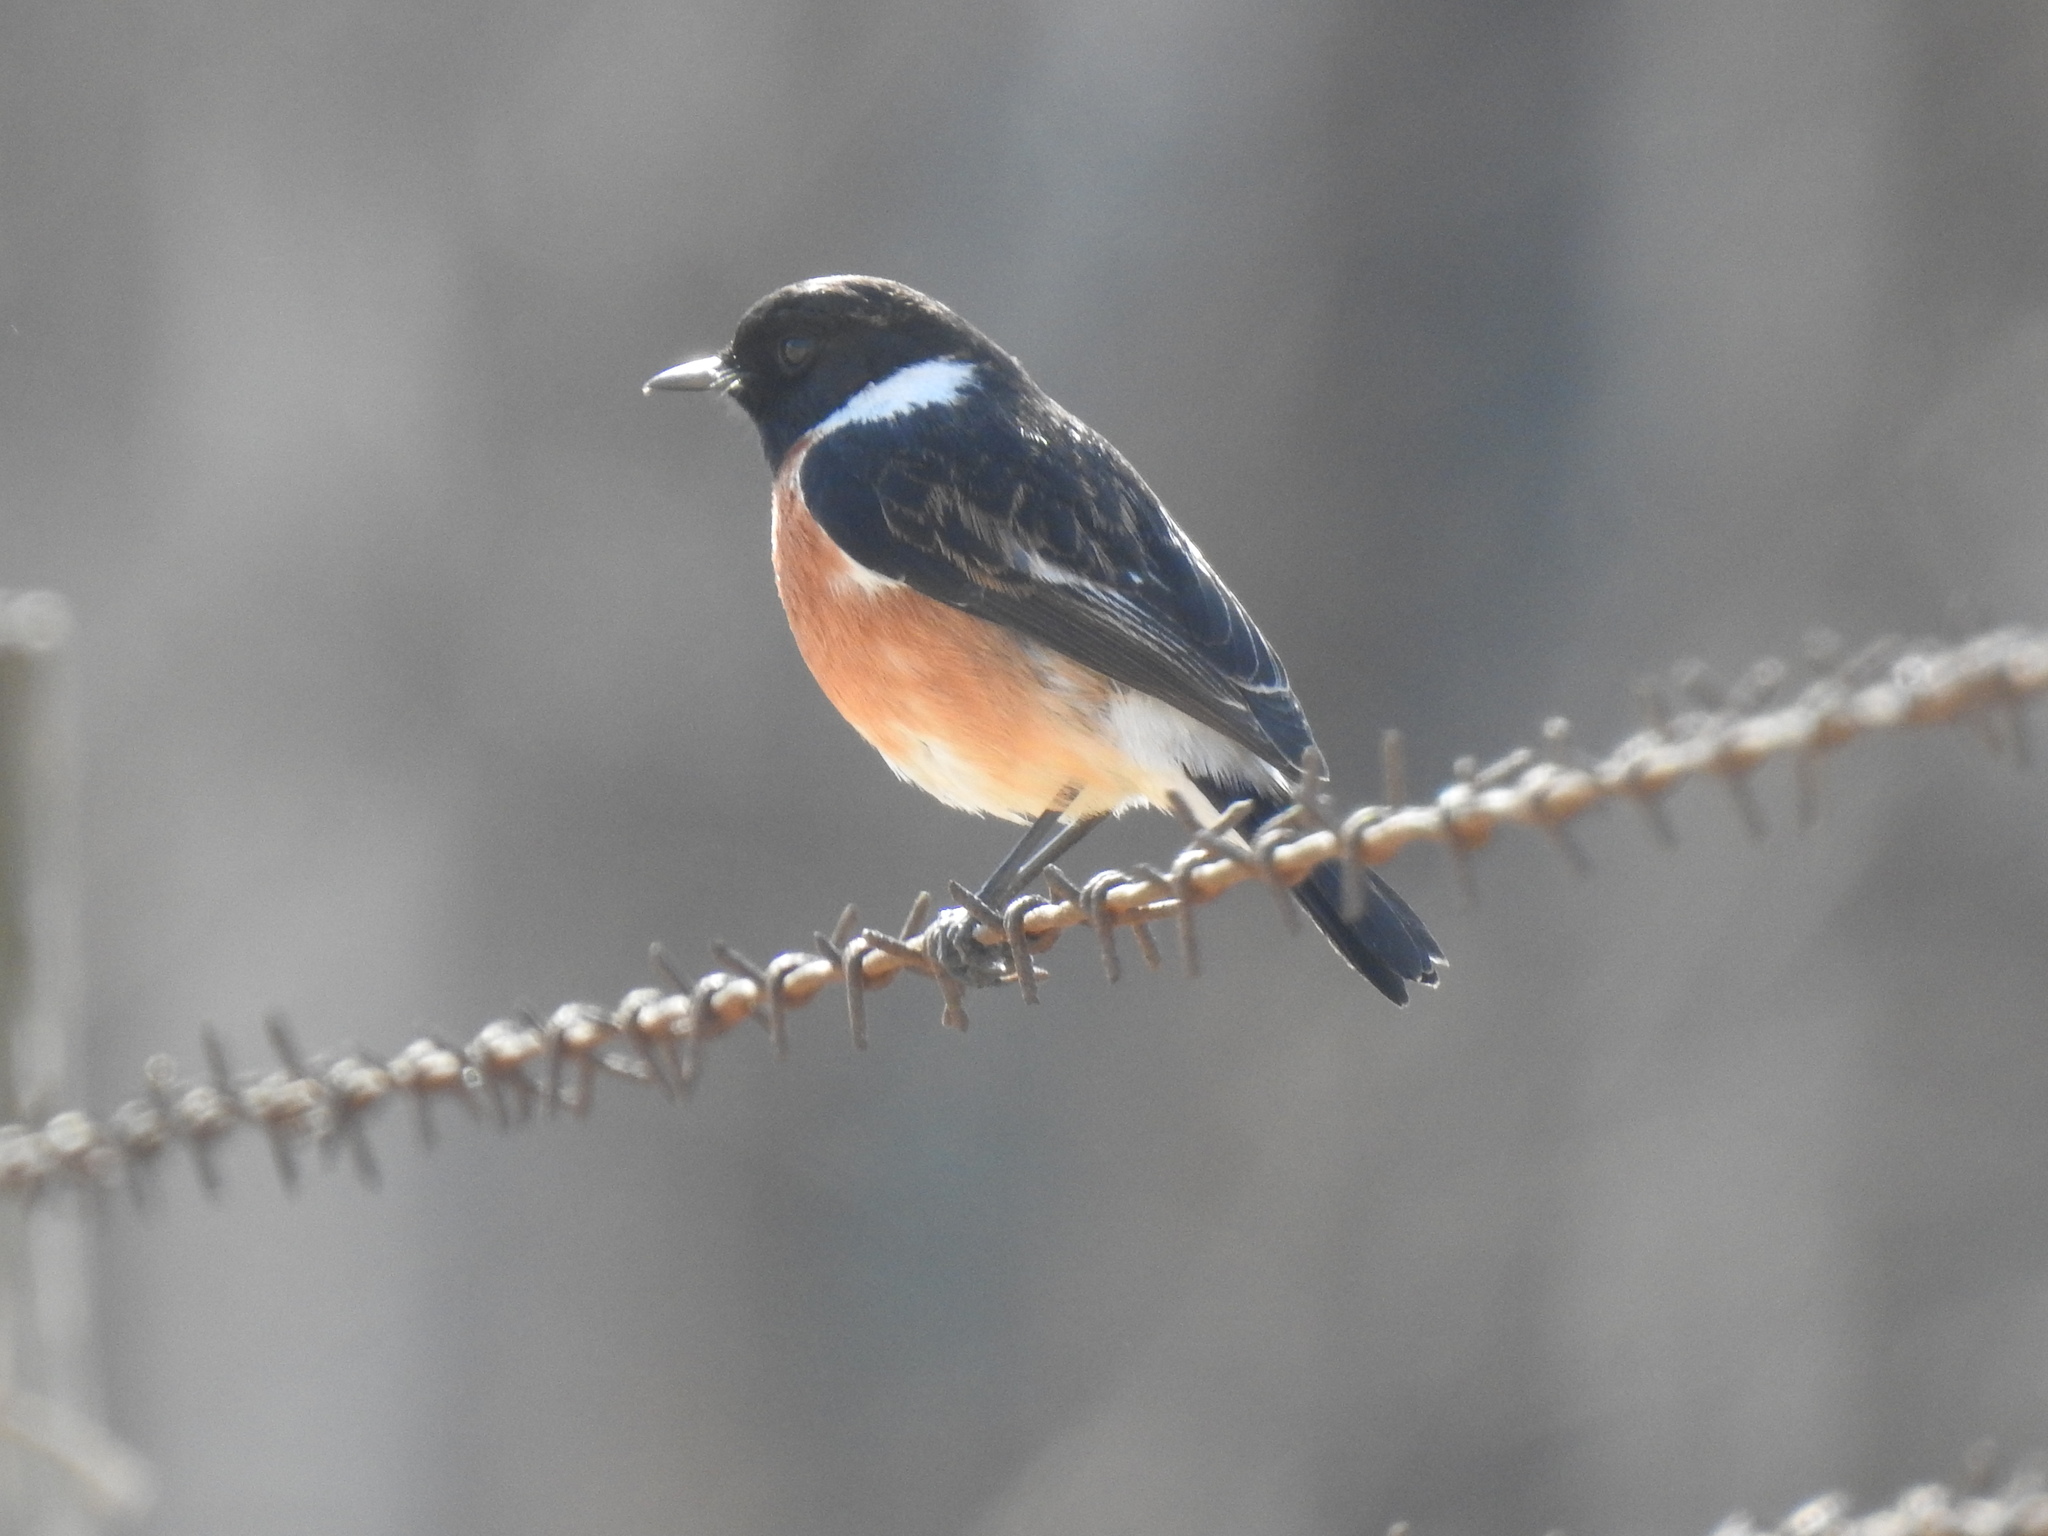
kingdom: Animalia
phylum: Chordata
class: Aves
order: Passeriformes
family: Muscicapidae
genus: Saxicola
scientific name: Saxicola torquatus
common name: African stonechat
